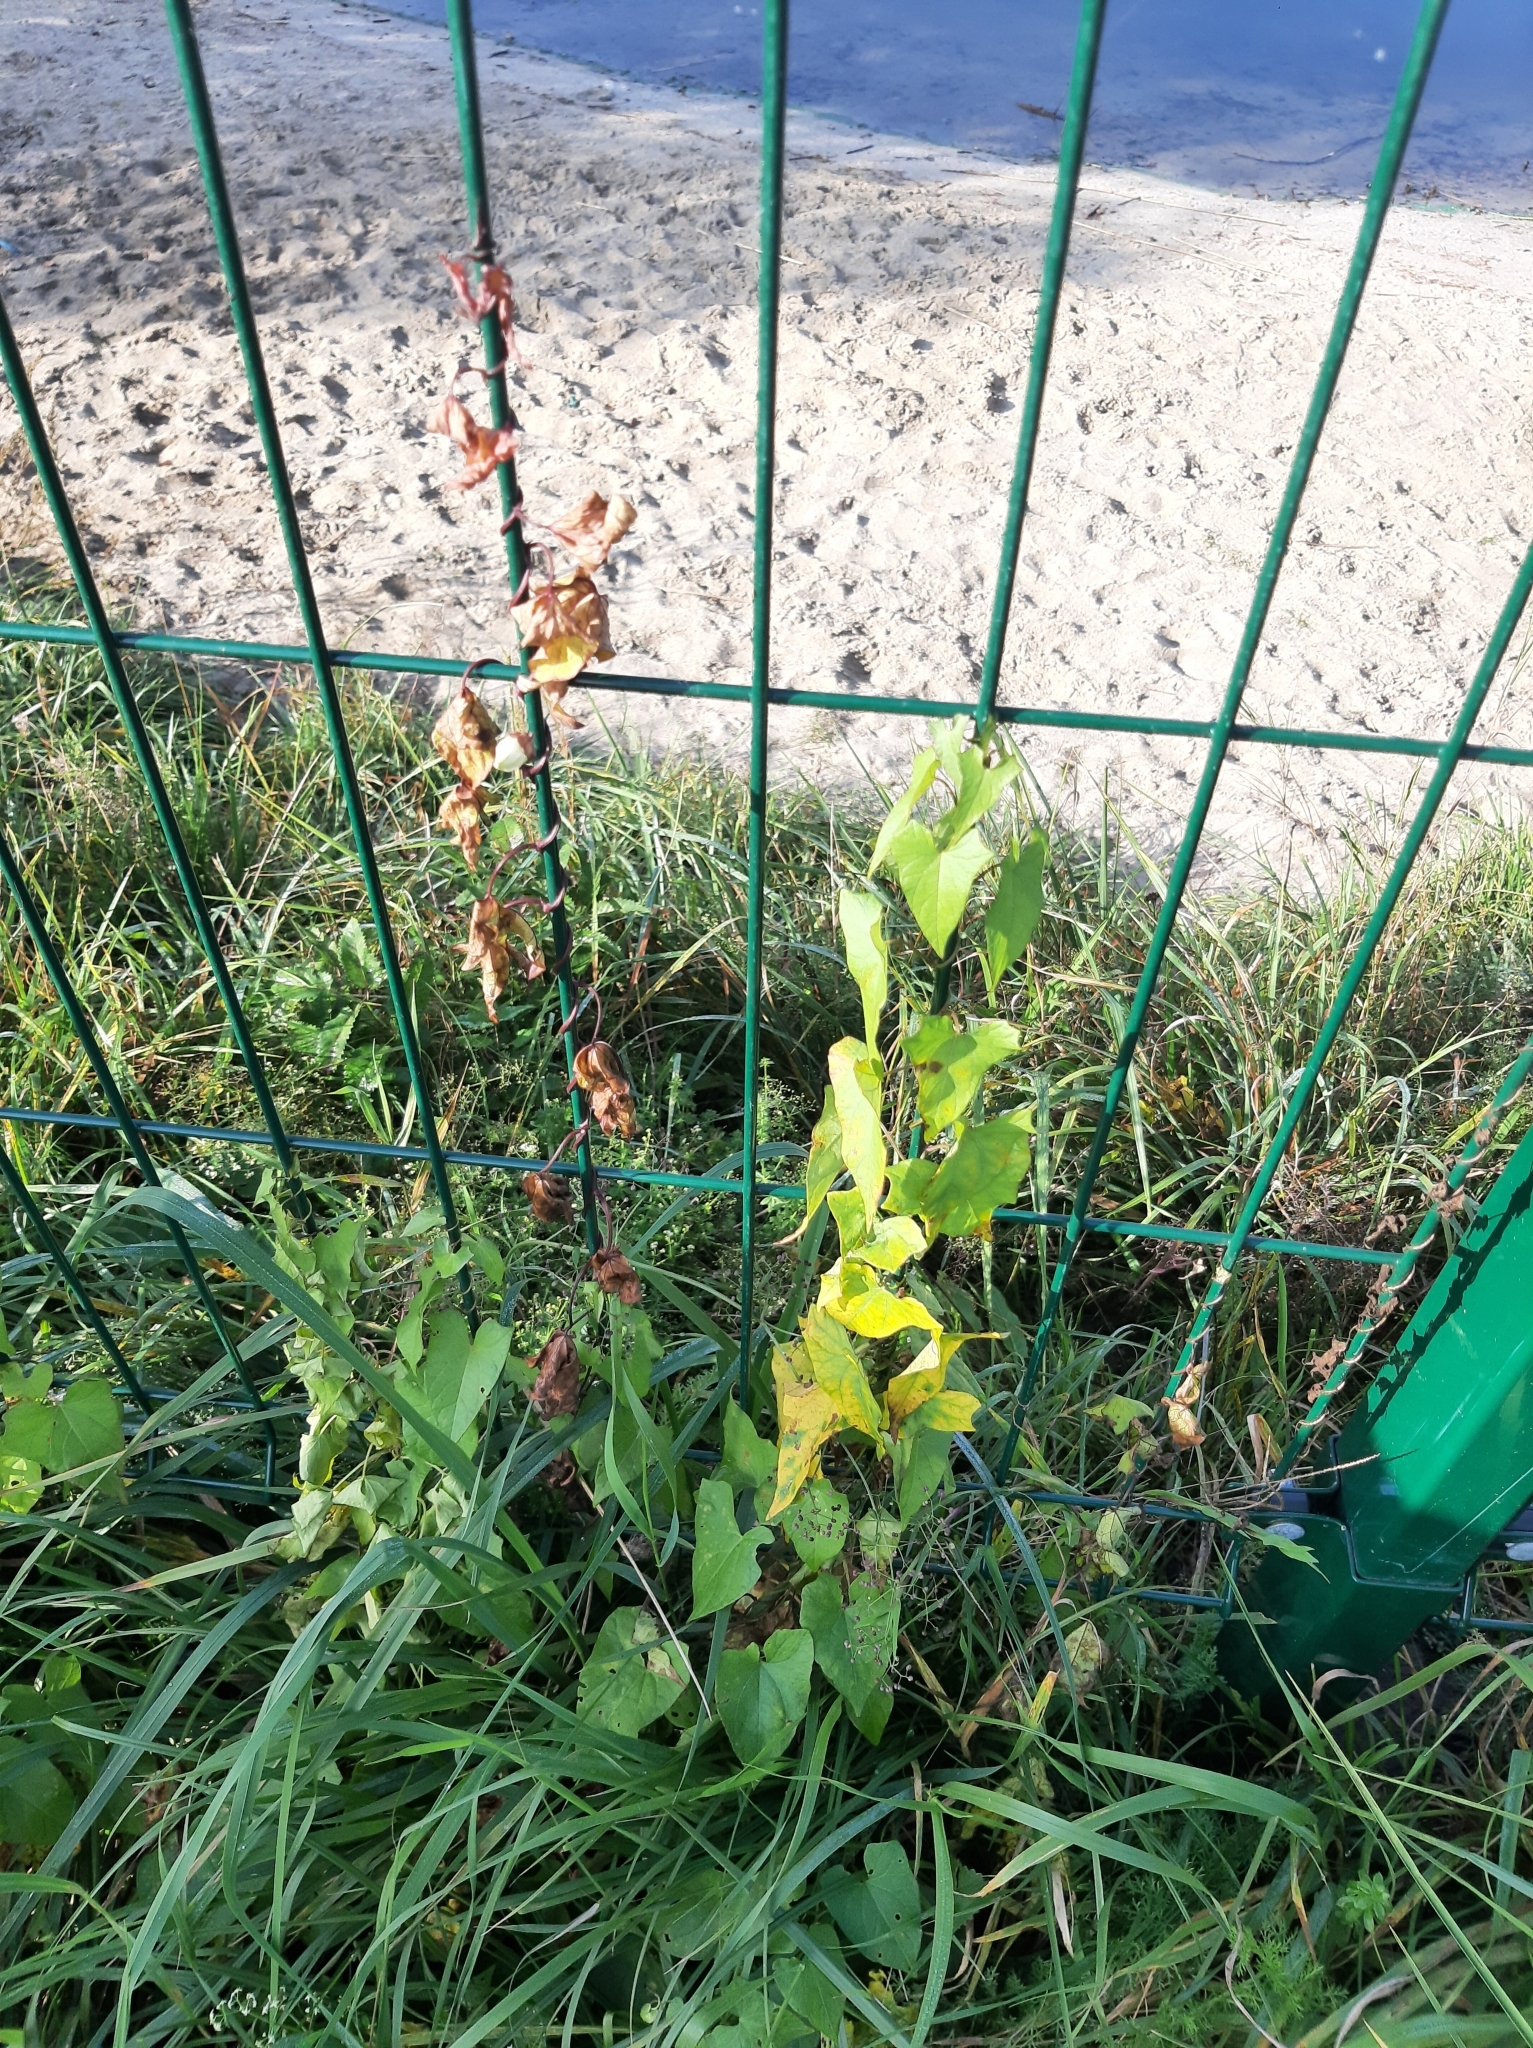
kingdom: Plantae
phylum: Tracheophyta
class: Magnoliopsida
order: Solanales
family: Convolvulaceae
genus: Calystegia
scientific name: Calystegia sepium
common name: Hedge bindweed
